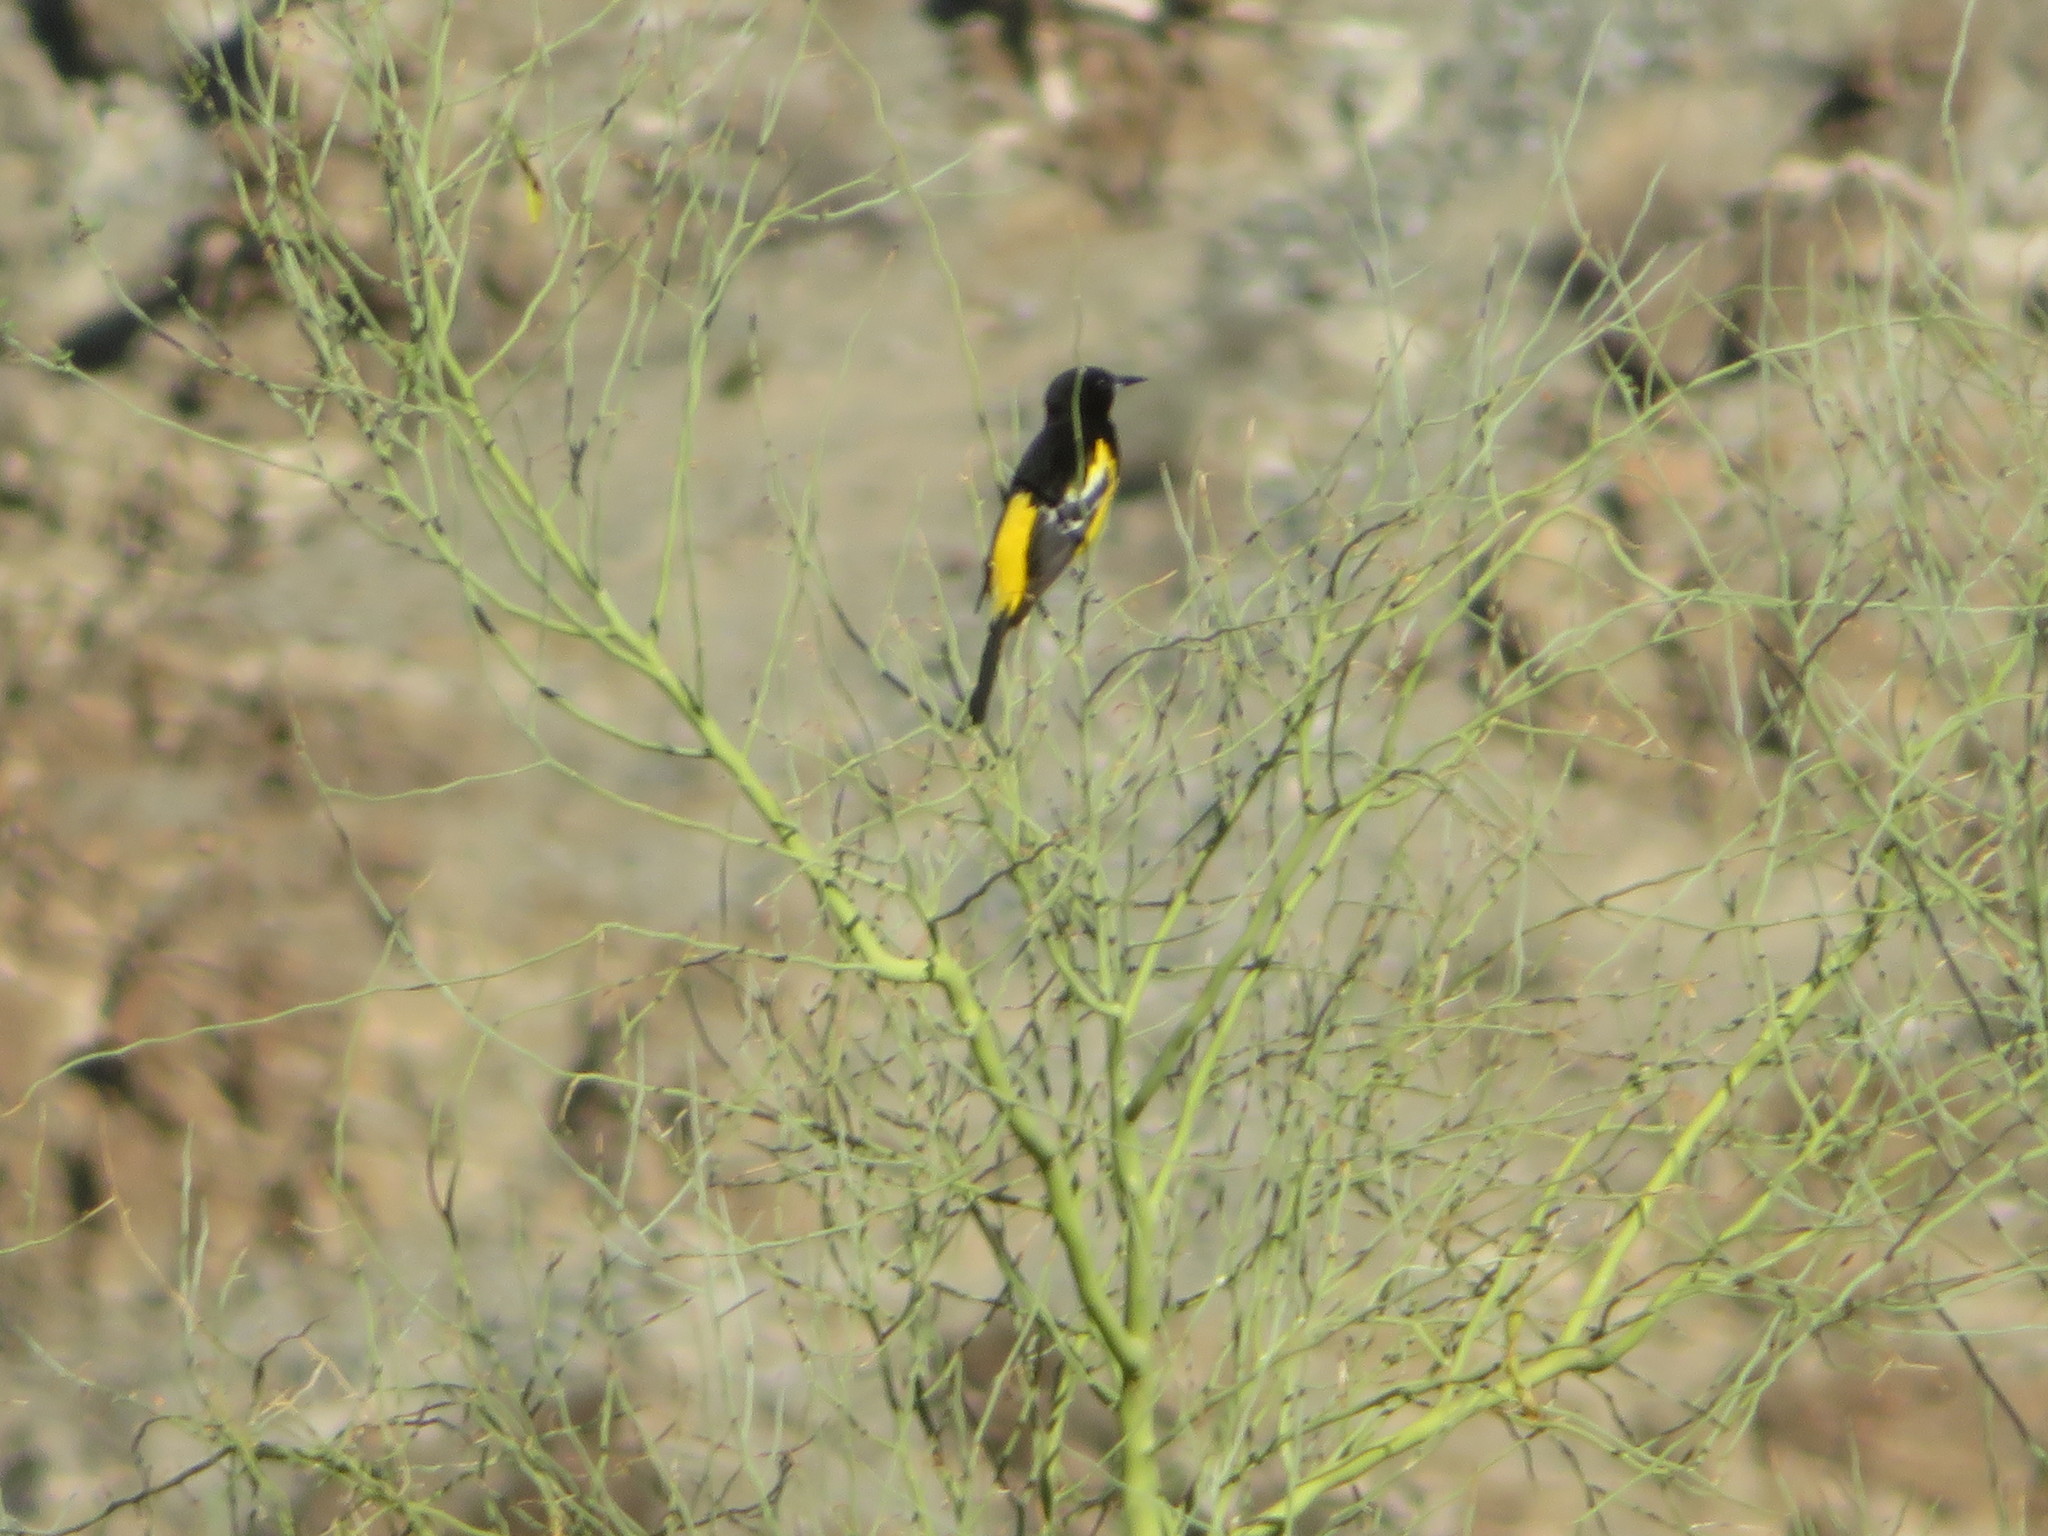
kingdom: Animalia
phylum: Chordata
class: Aves
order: Passeriformes
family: Icteridae
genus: Icterus
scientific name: Icterus parisorum
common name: Scott's oriole
